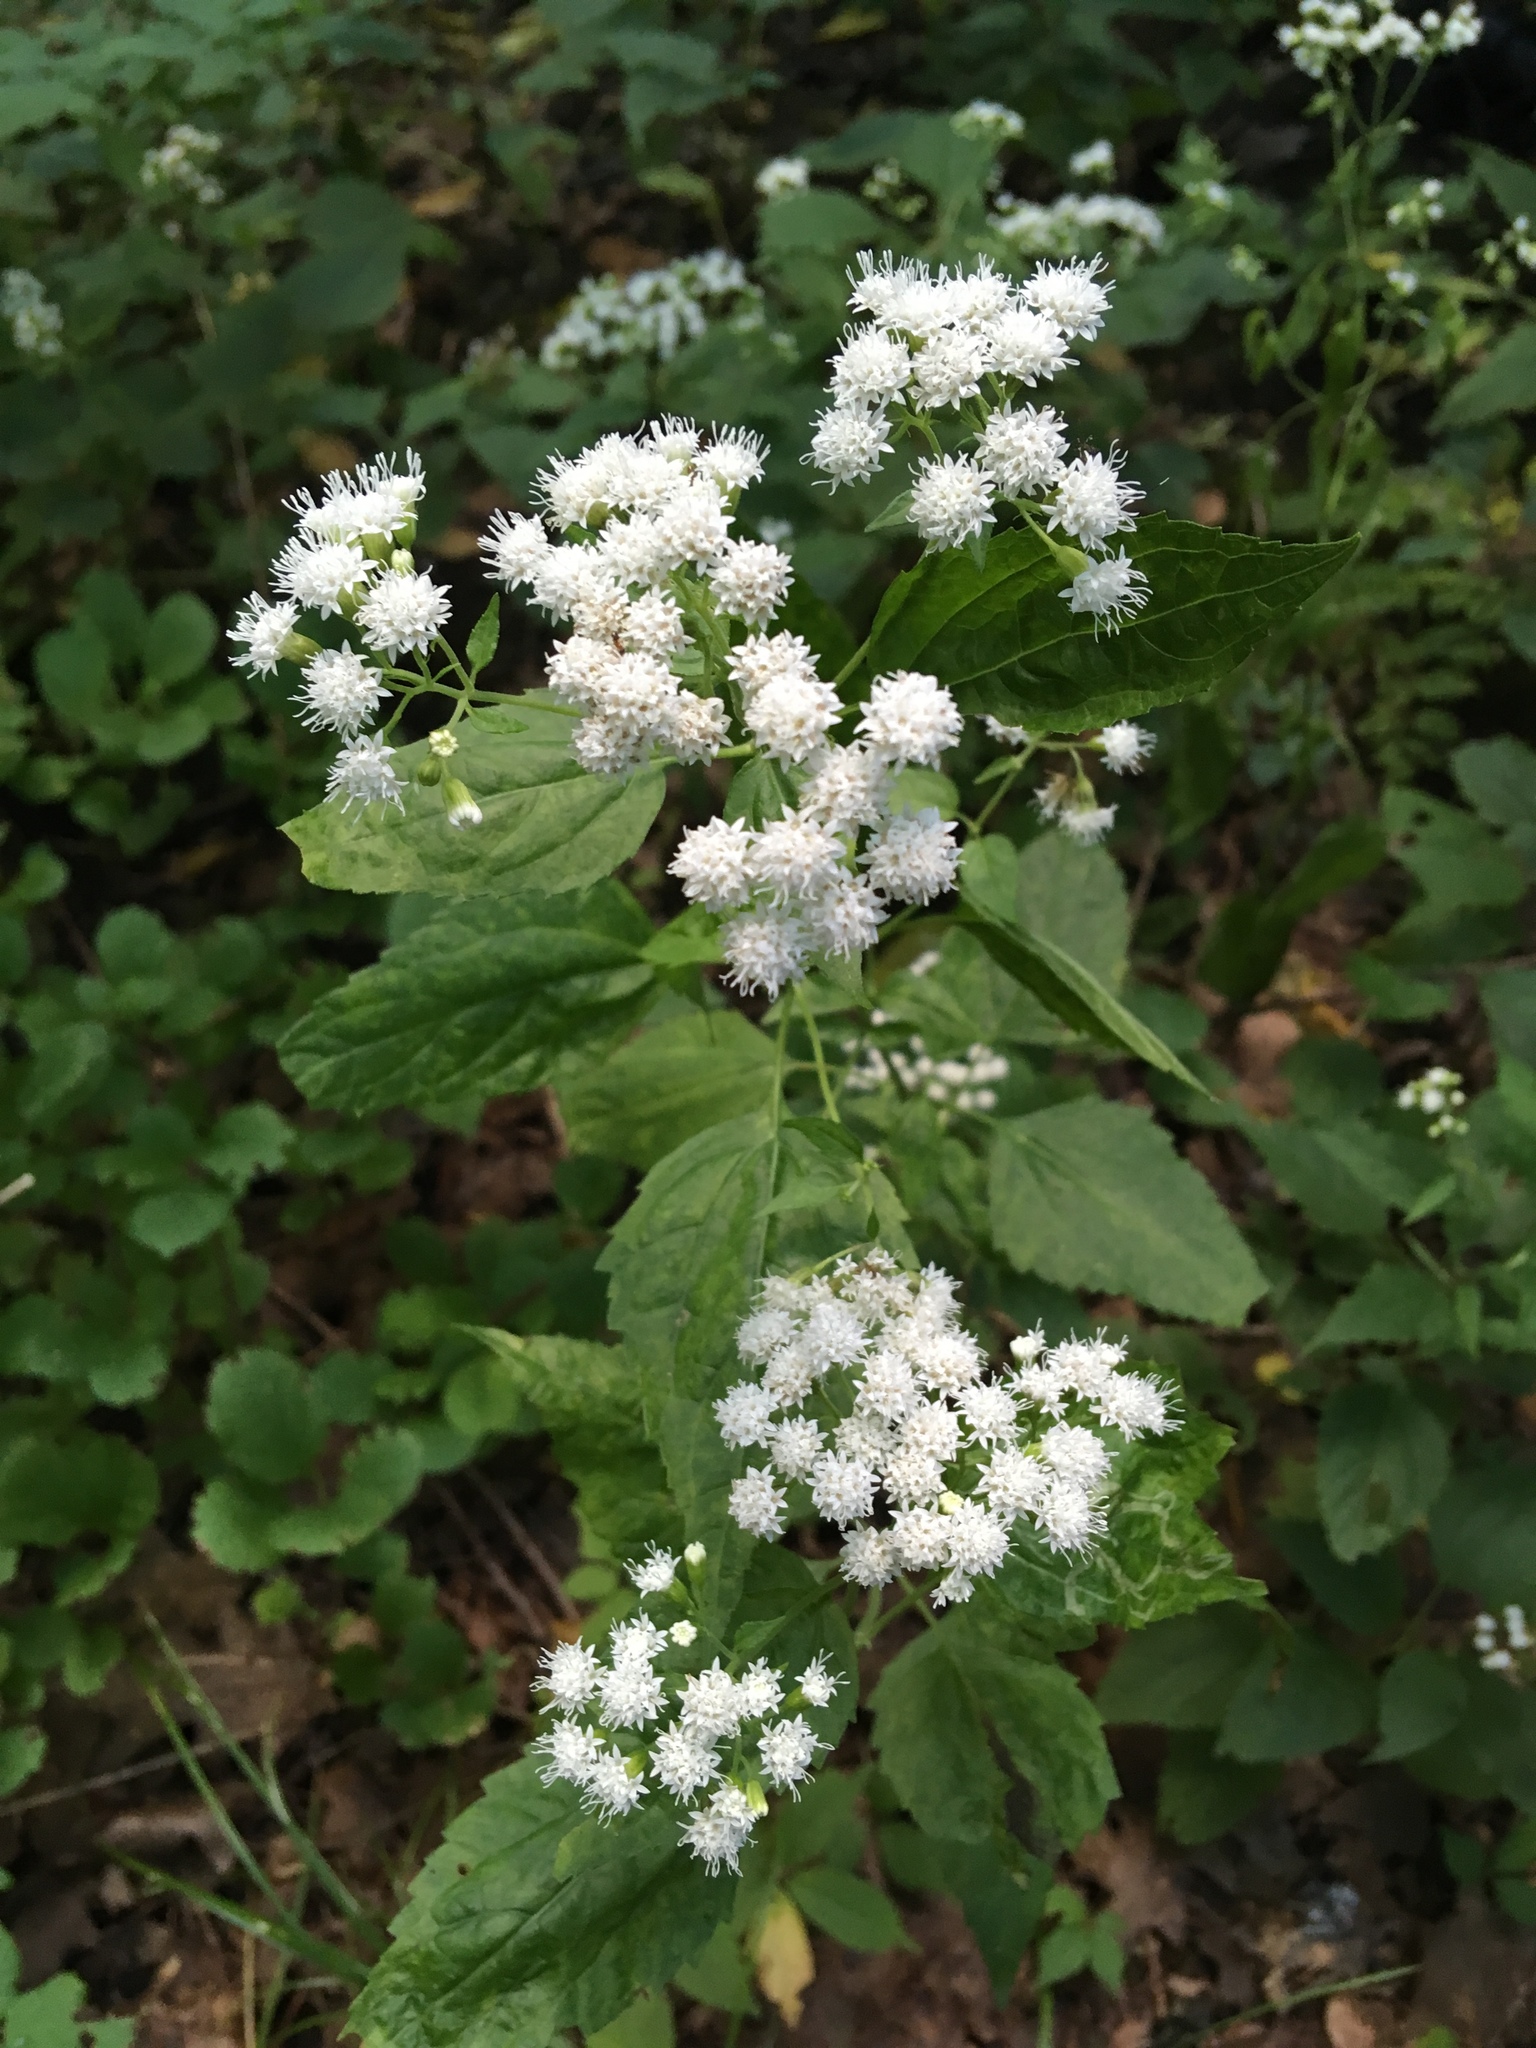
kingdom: Plantae
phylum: Tracheophyta
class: Magnoliopsida
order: Asterales
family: Asteraceae
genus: Ageratina
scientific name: Ageratina altissima
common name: White snakeroot
